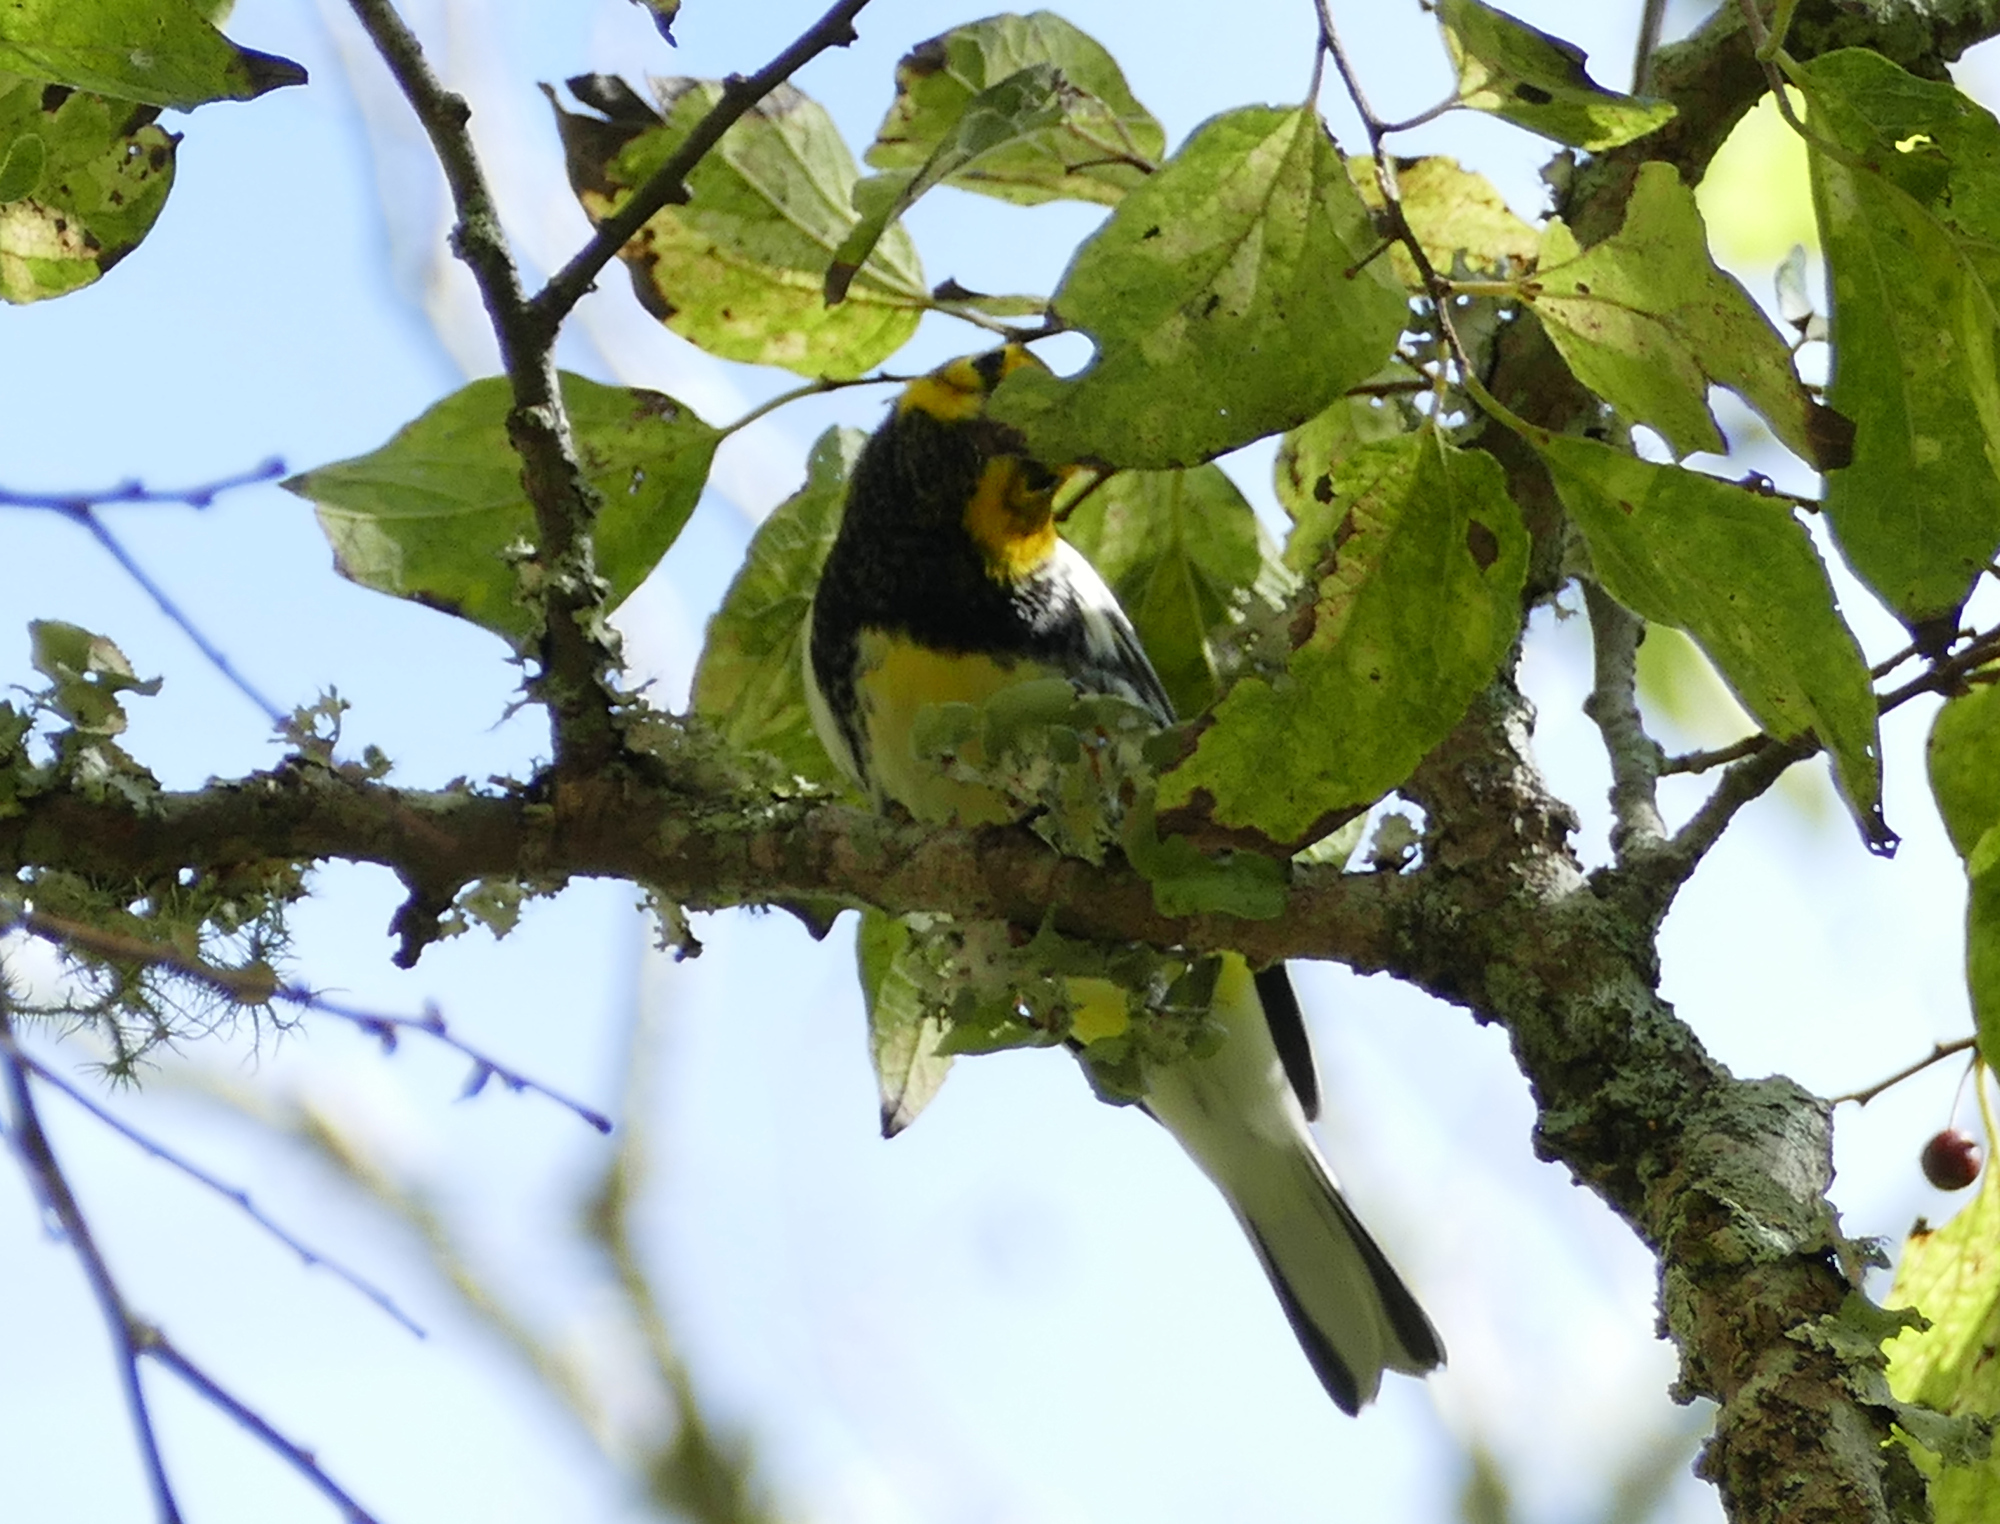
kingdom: Animalia
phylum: Chordata
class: Aves
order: Passeriformes
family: Parulidae
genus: Setophaga
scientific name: Setophaga virens
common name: Black-throated green warbler
